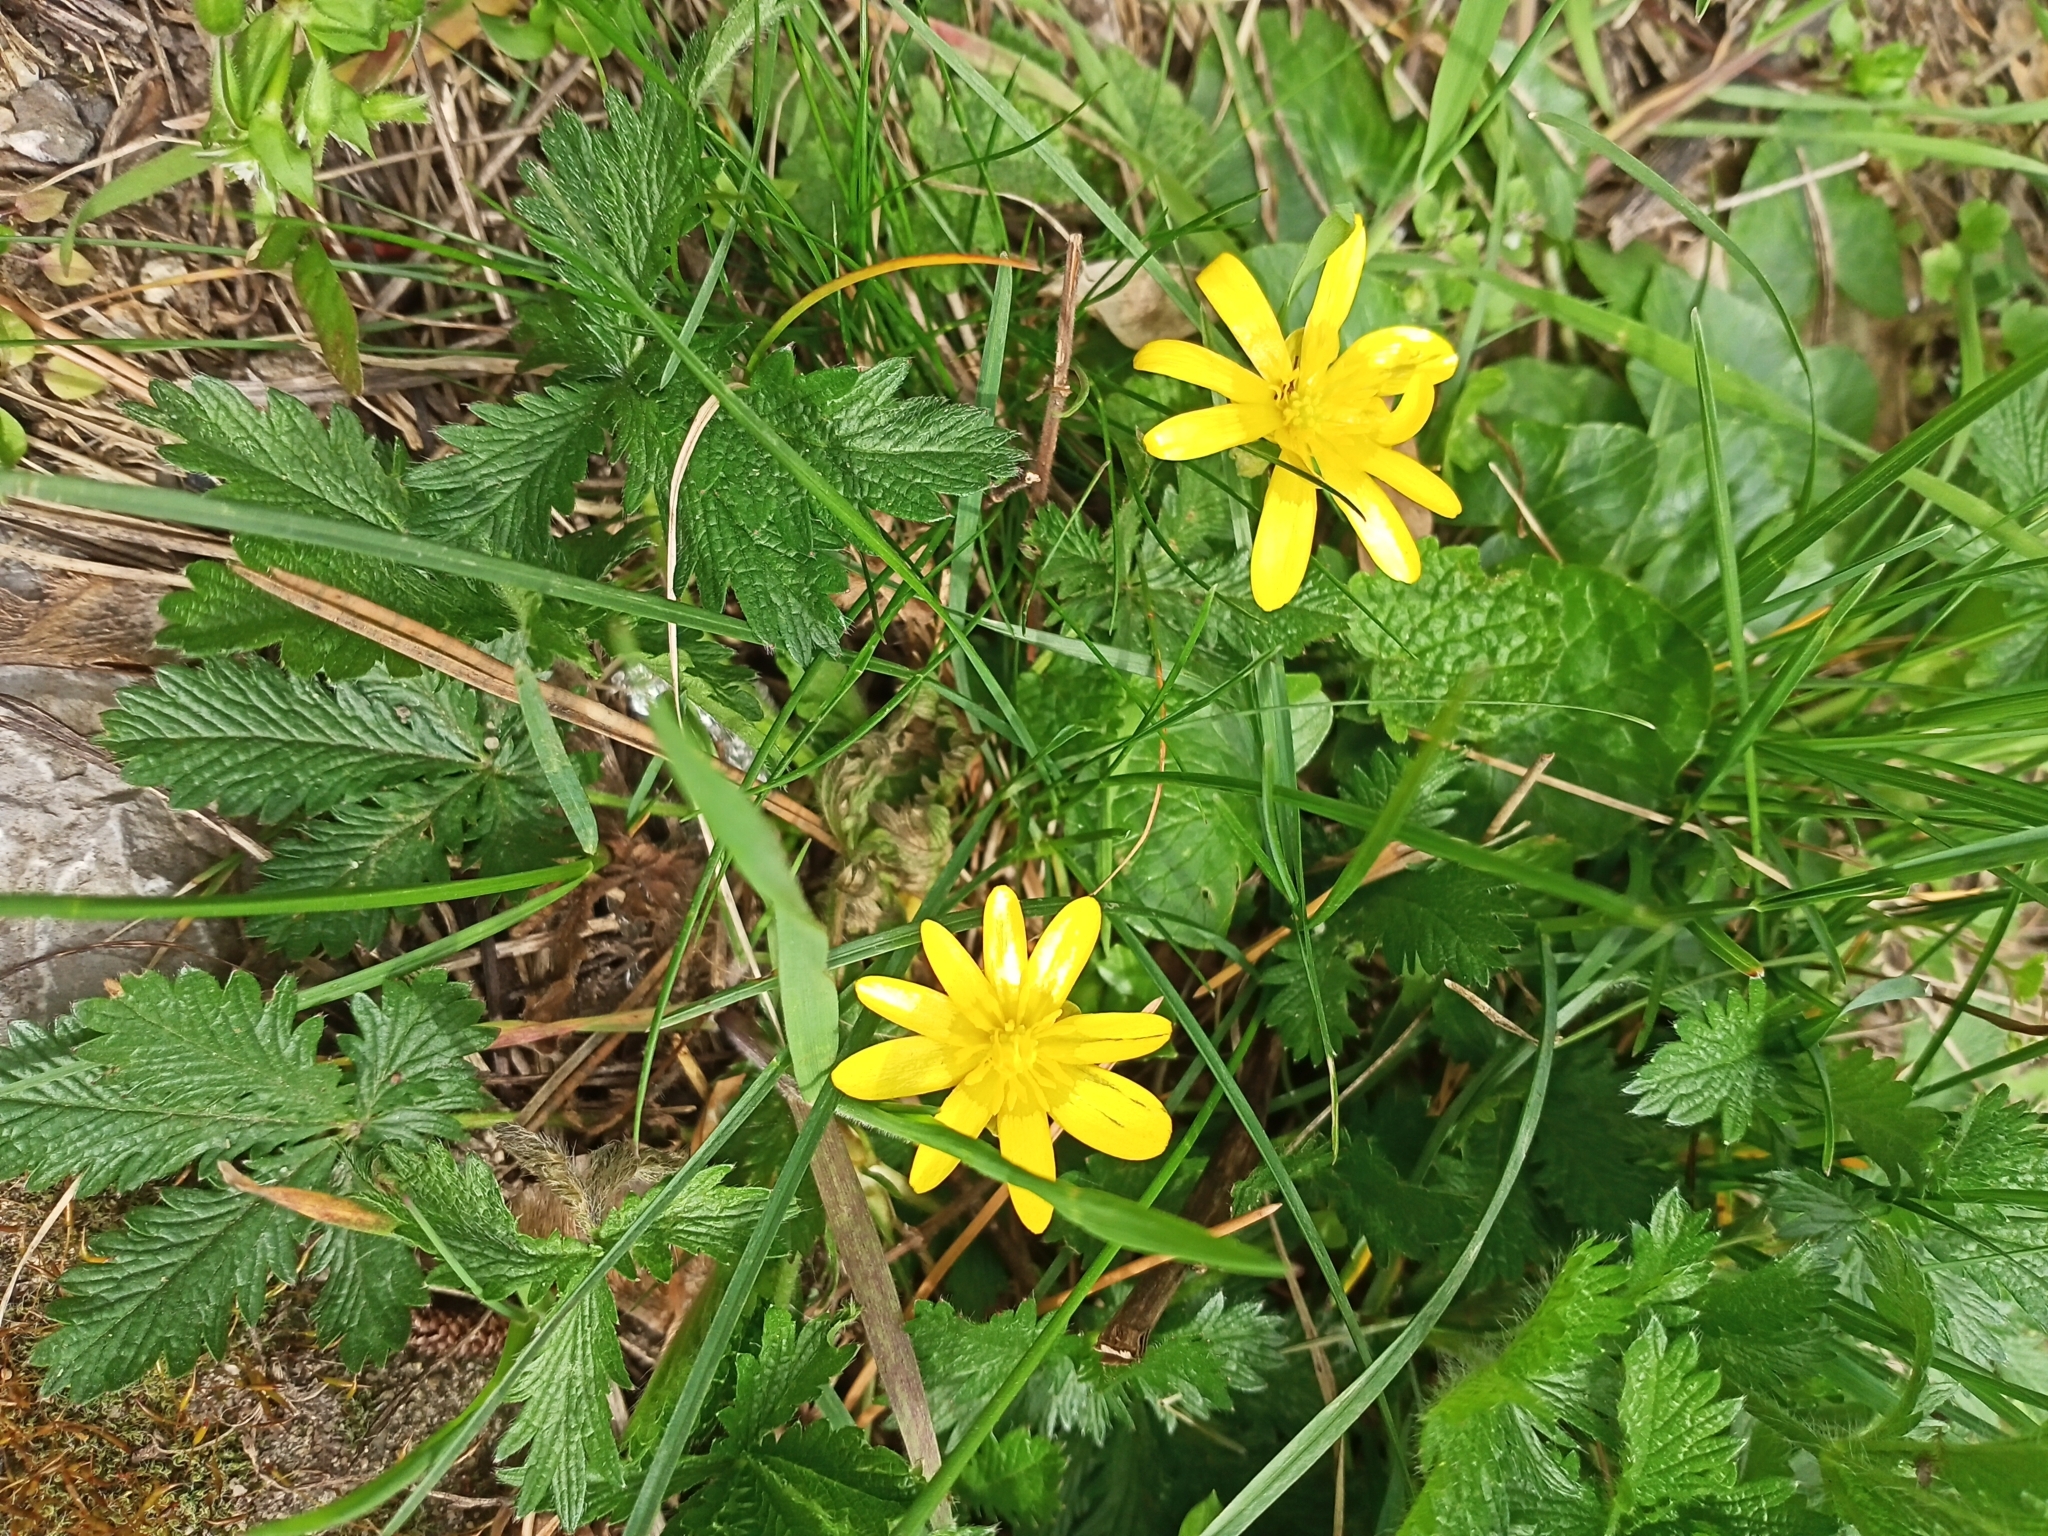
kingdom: Plantae
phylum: Tracheophyta
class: Magnoliopsida
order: Ranunculales
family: Ranunculaceae
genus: Ficaria
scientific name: Ficaria verna
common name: Lesser celandine
